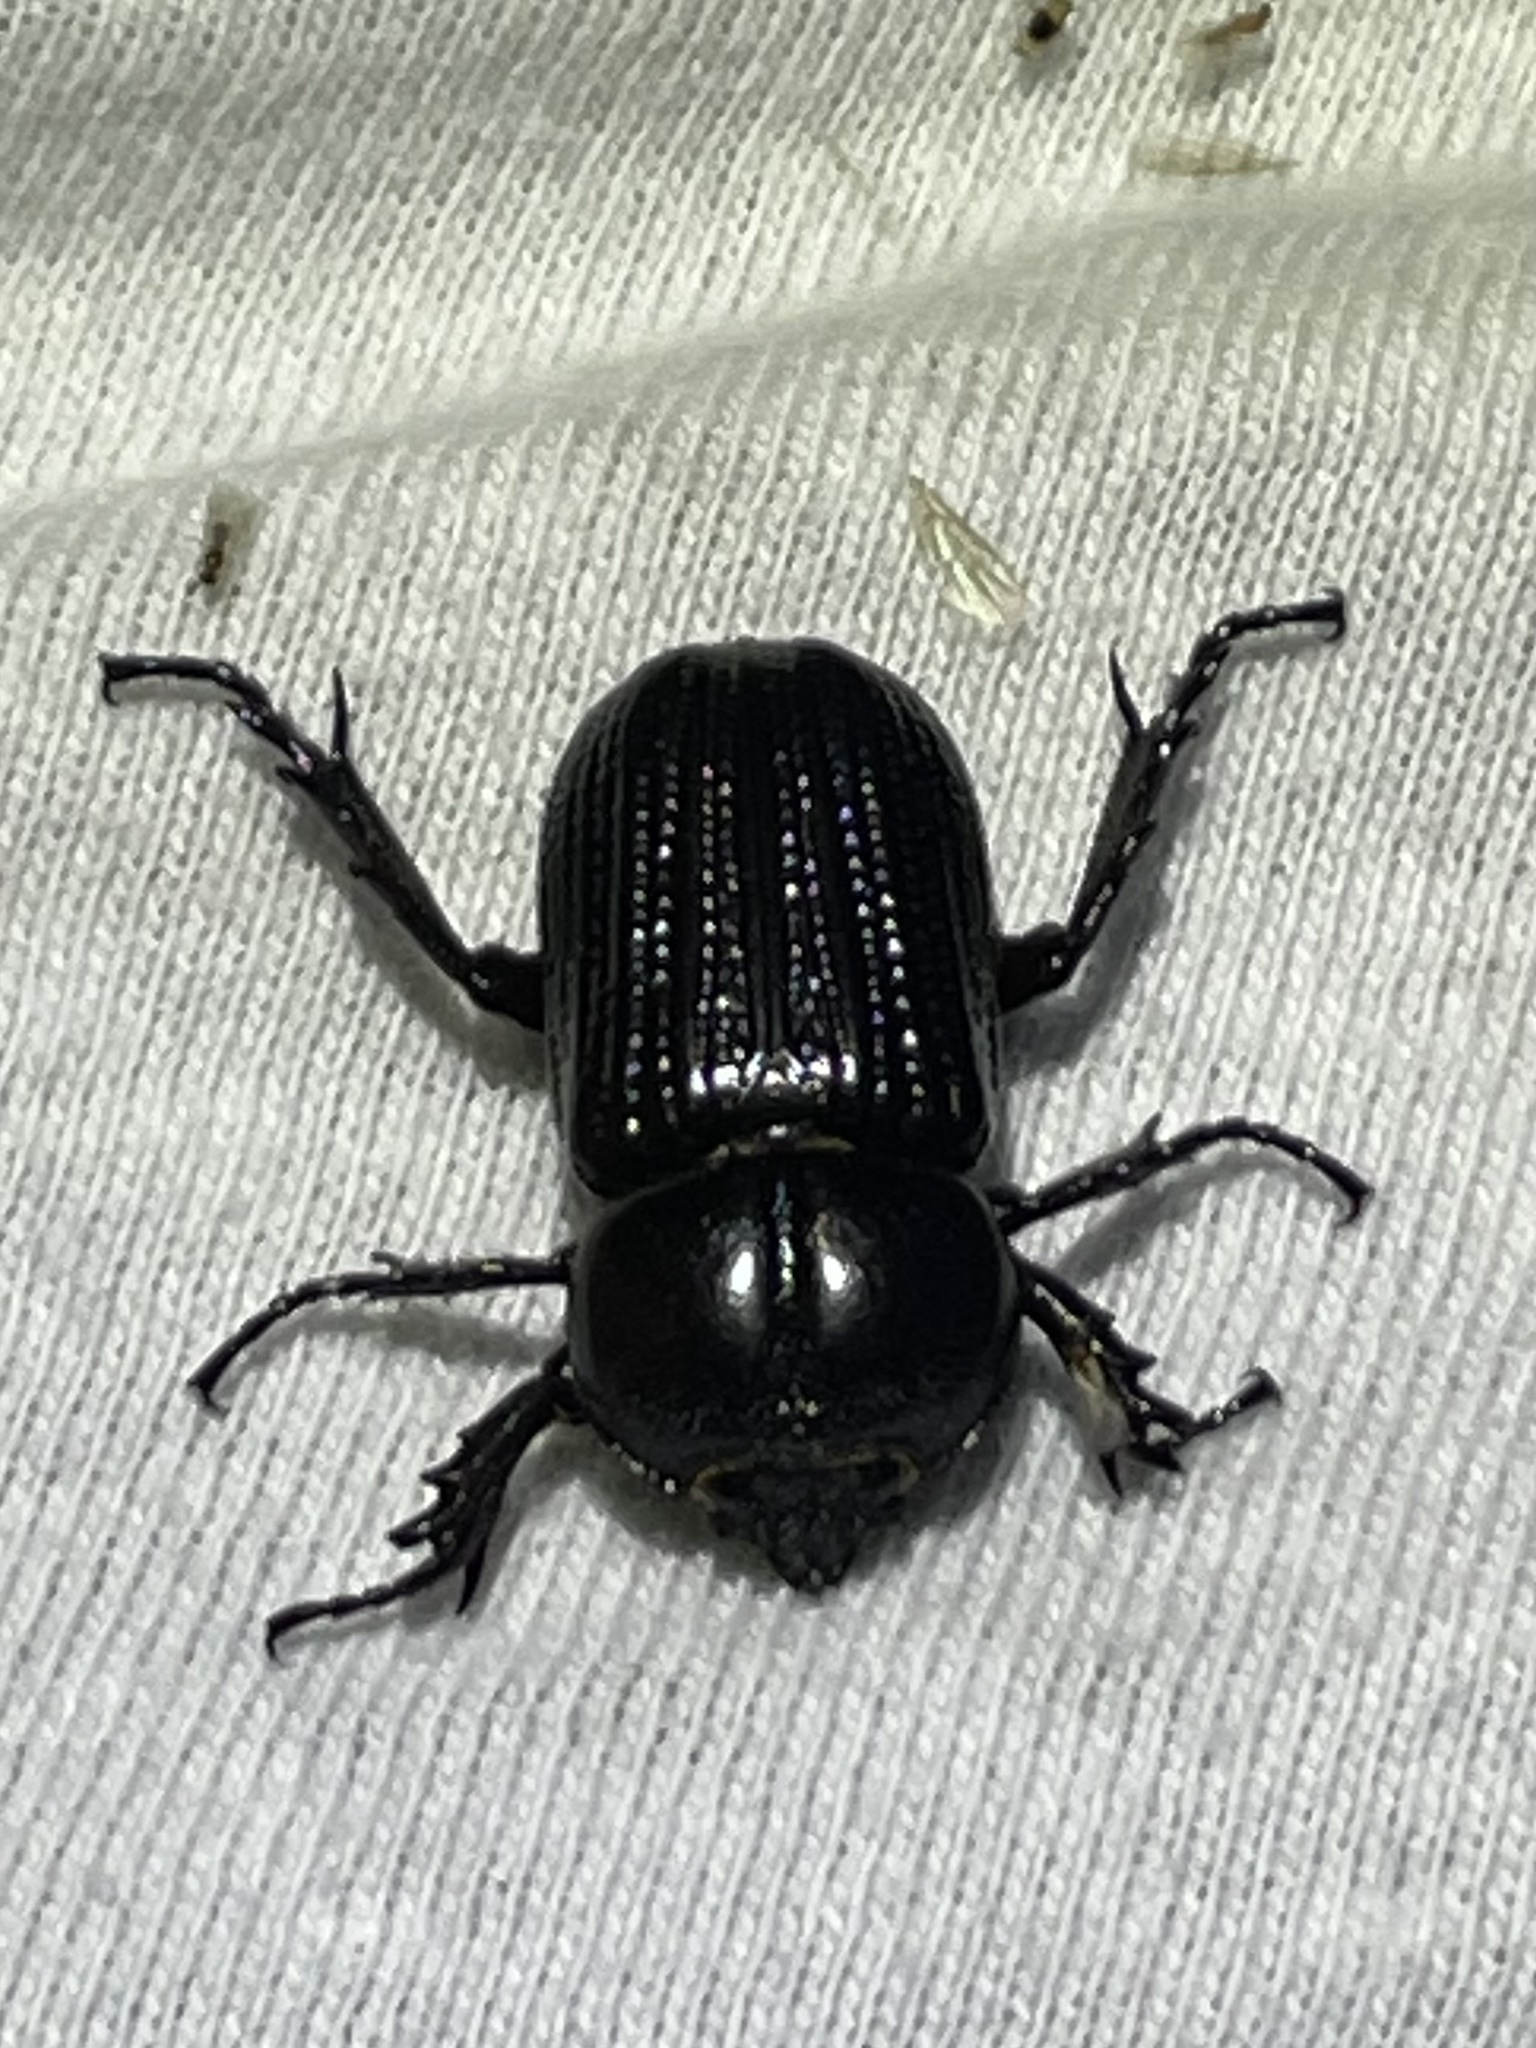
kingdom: Animalia
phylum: Arthropoda
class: Insecta
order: Coleoptera
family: Scarabaeidae
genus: Phileurus
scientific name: Phileurus valgus
